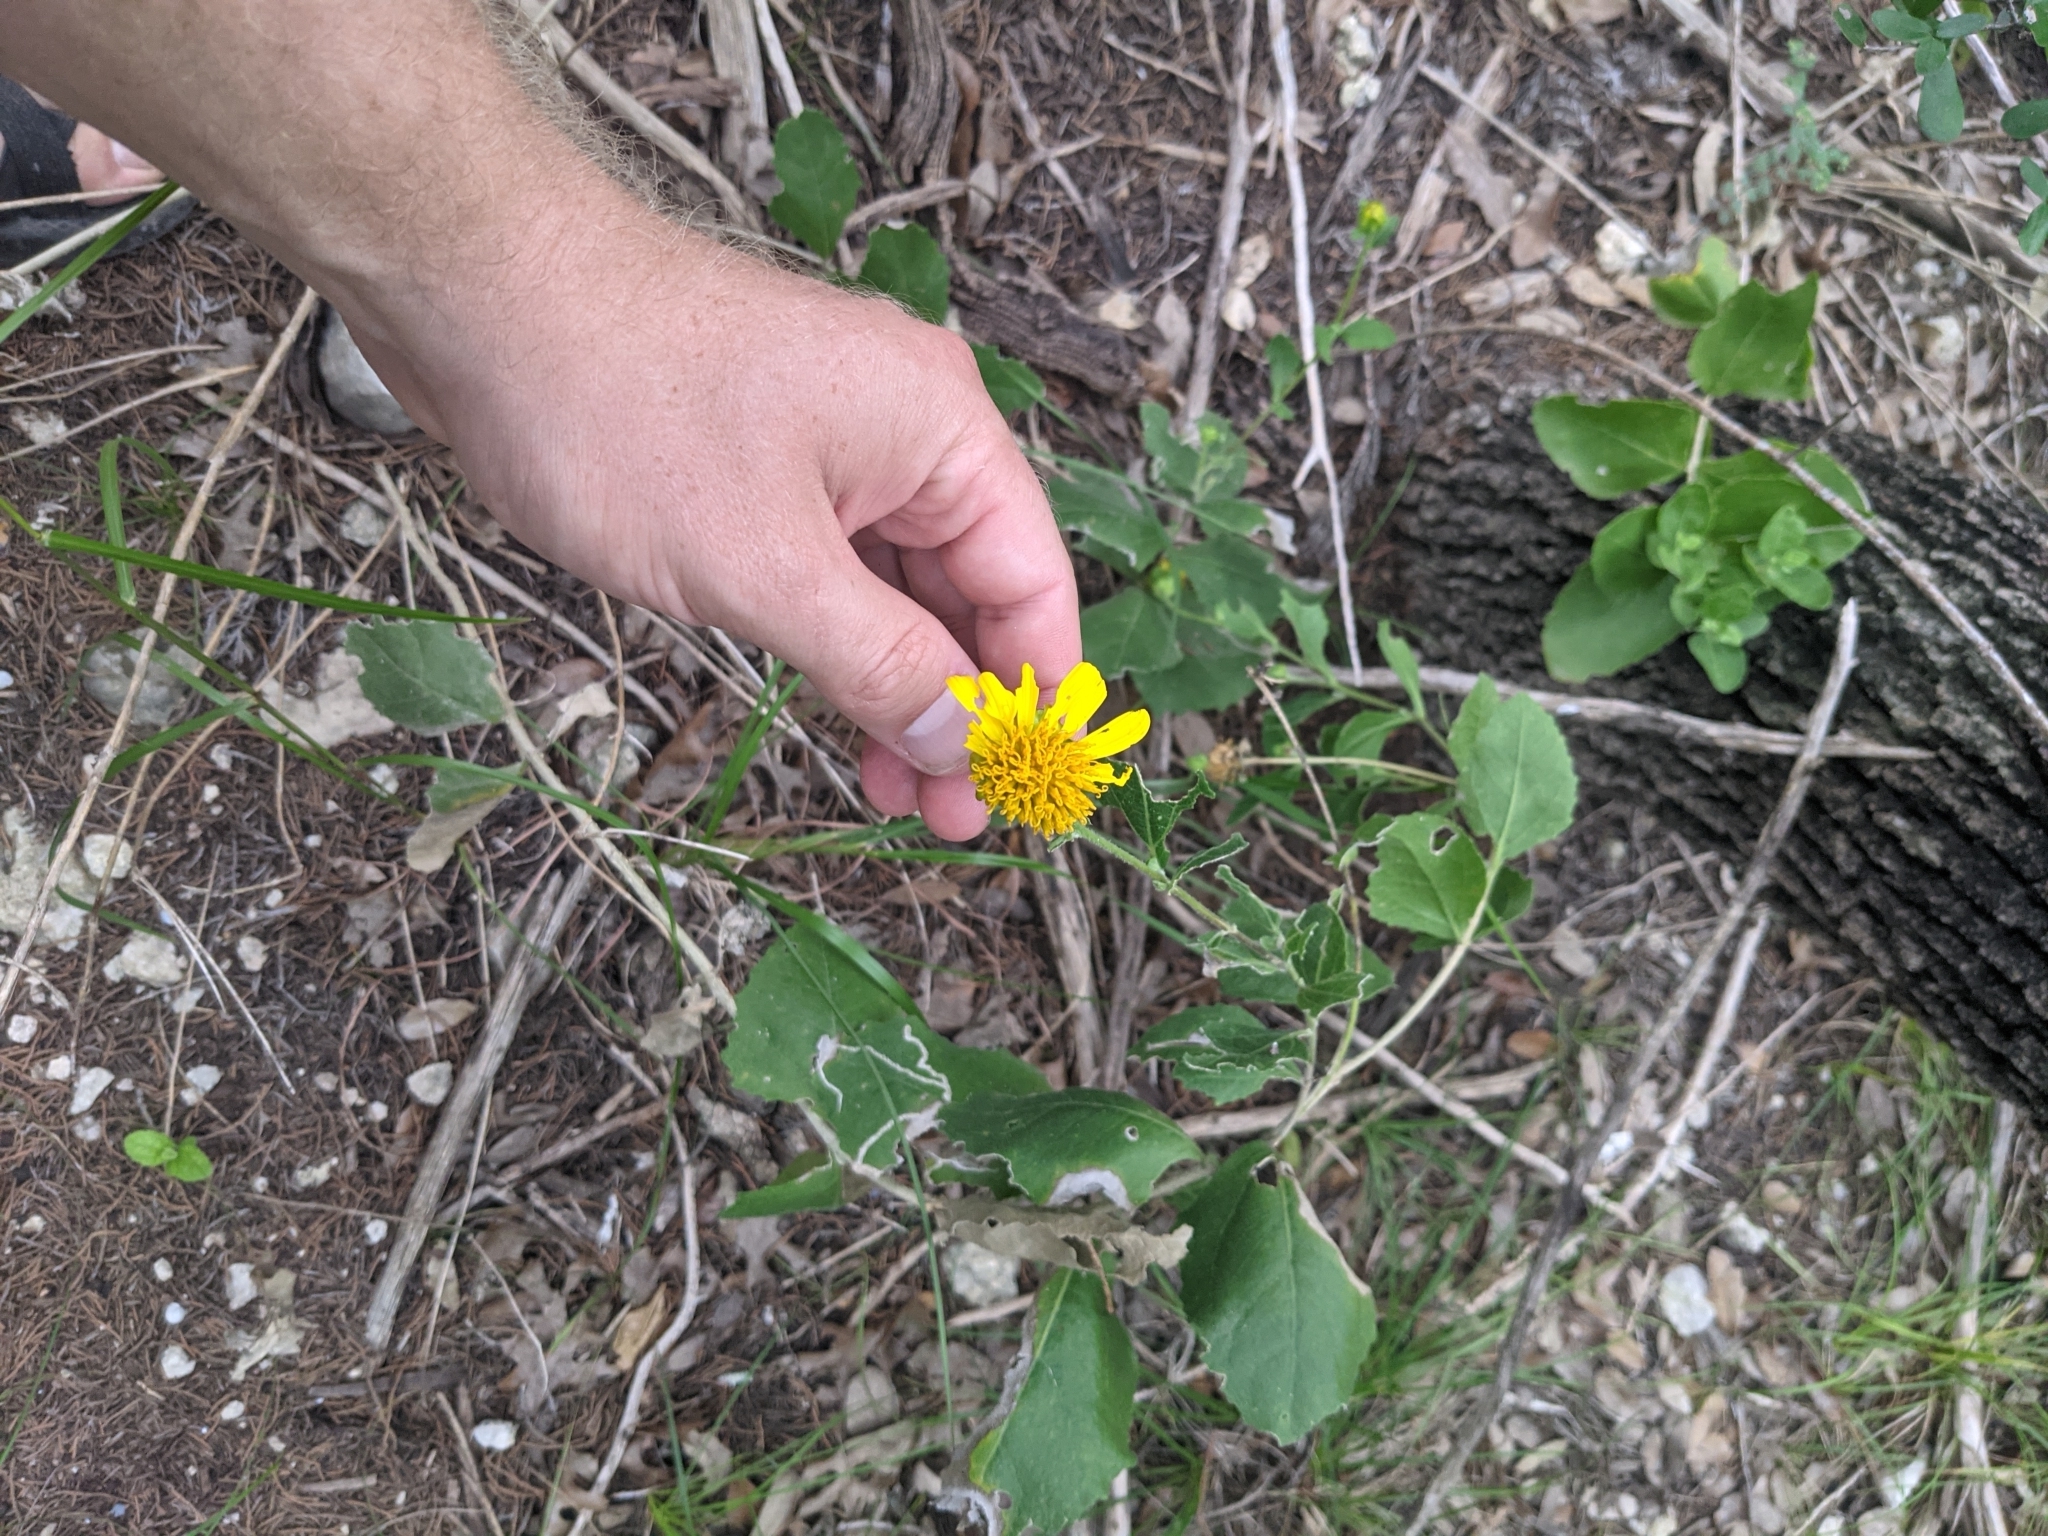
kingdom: Plantae
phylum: Tracheophyta
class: Magnoliopsida
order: Asterales
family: Asteraceae
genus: Verbesina
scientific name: Verbesina lindheimeri
